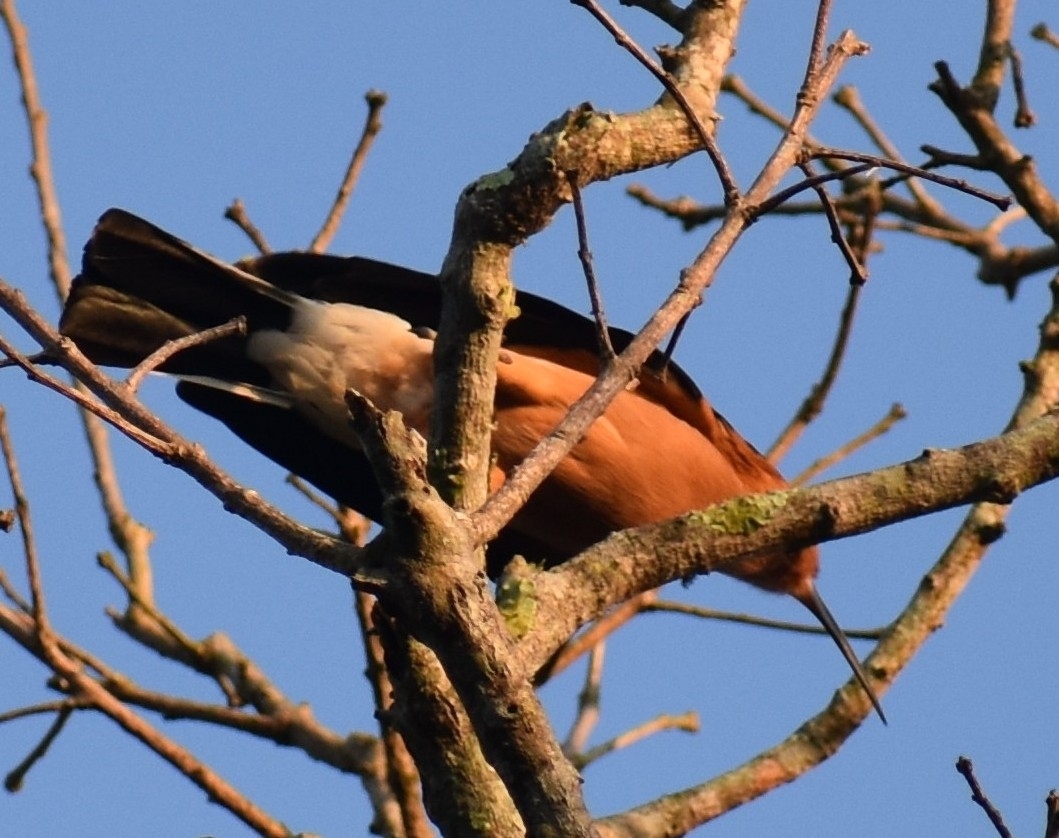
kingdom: Animalia
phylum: Chordata
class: Aves
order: Bucerotiformes
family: Upupidae
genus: Upupa
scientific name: Upupa africana
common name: African hoopoe
